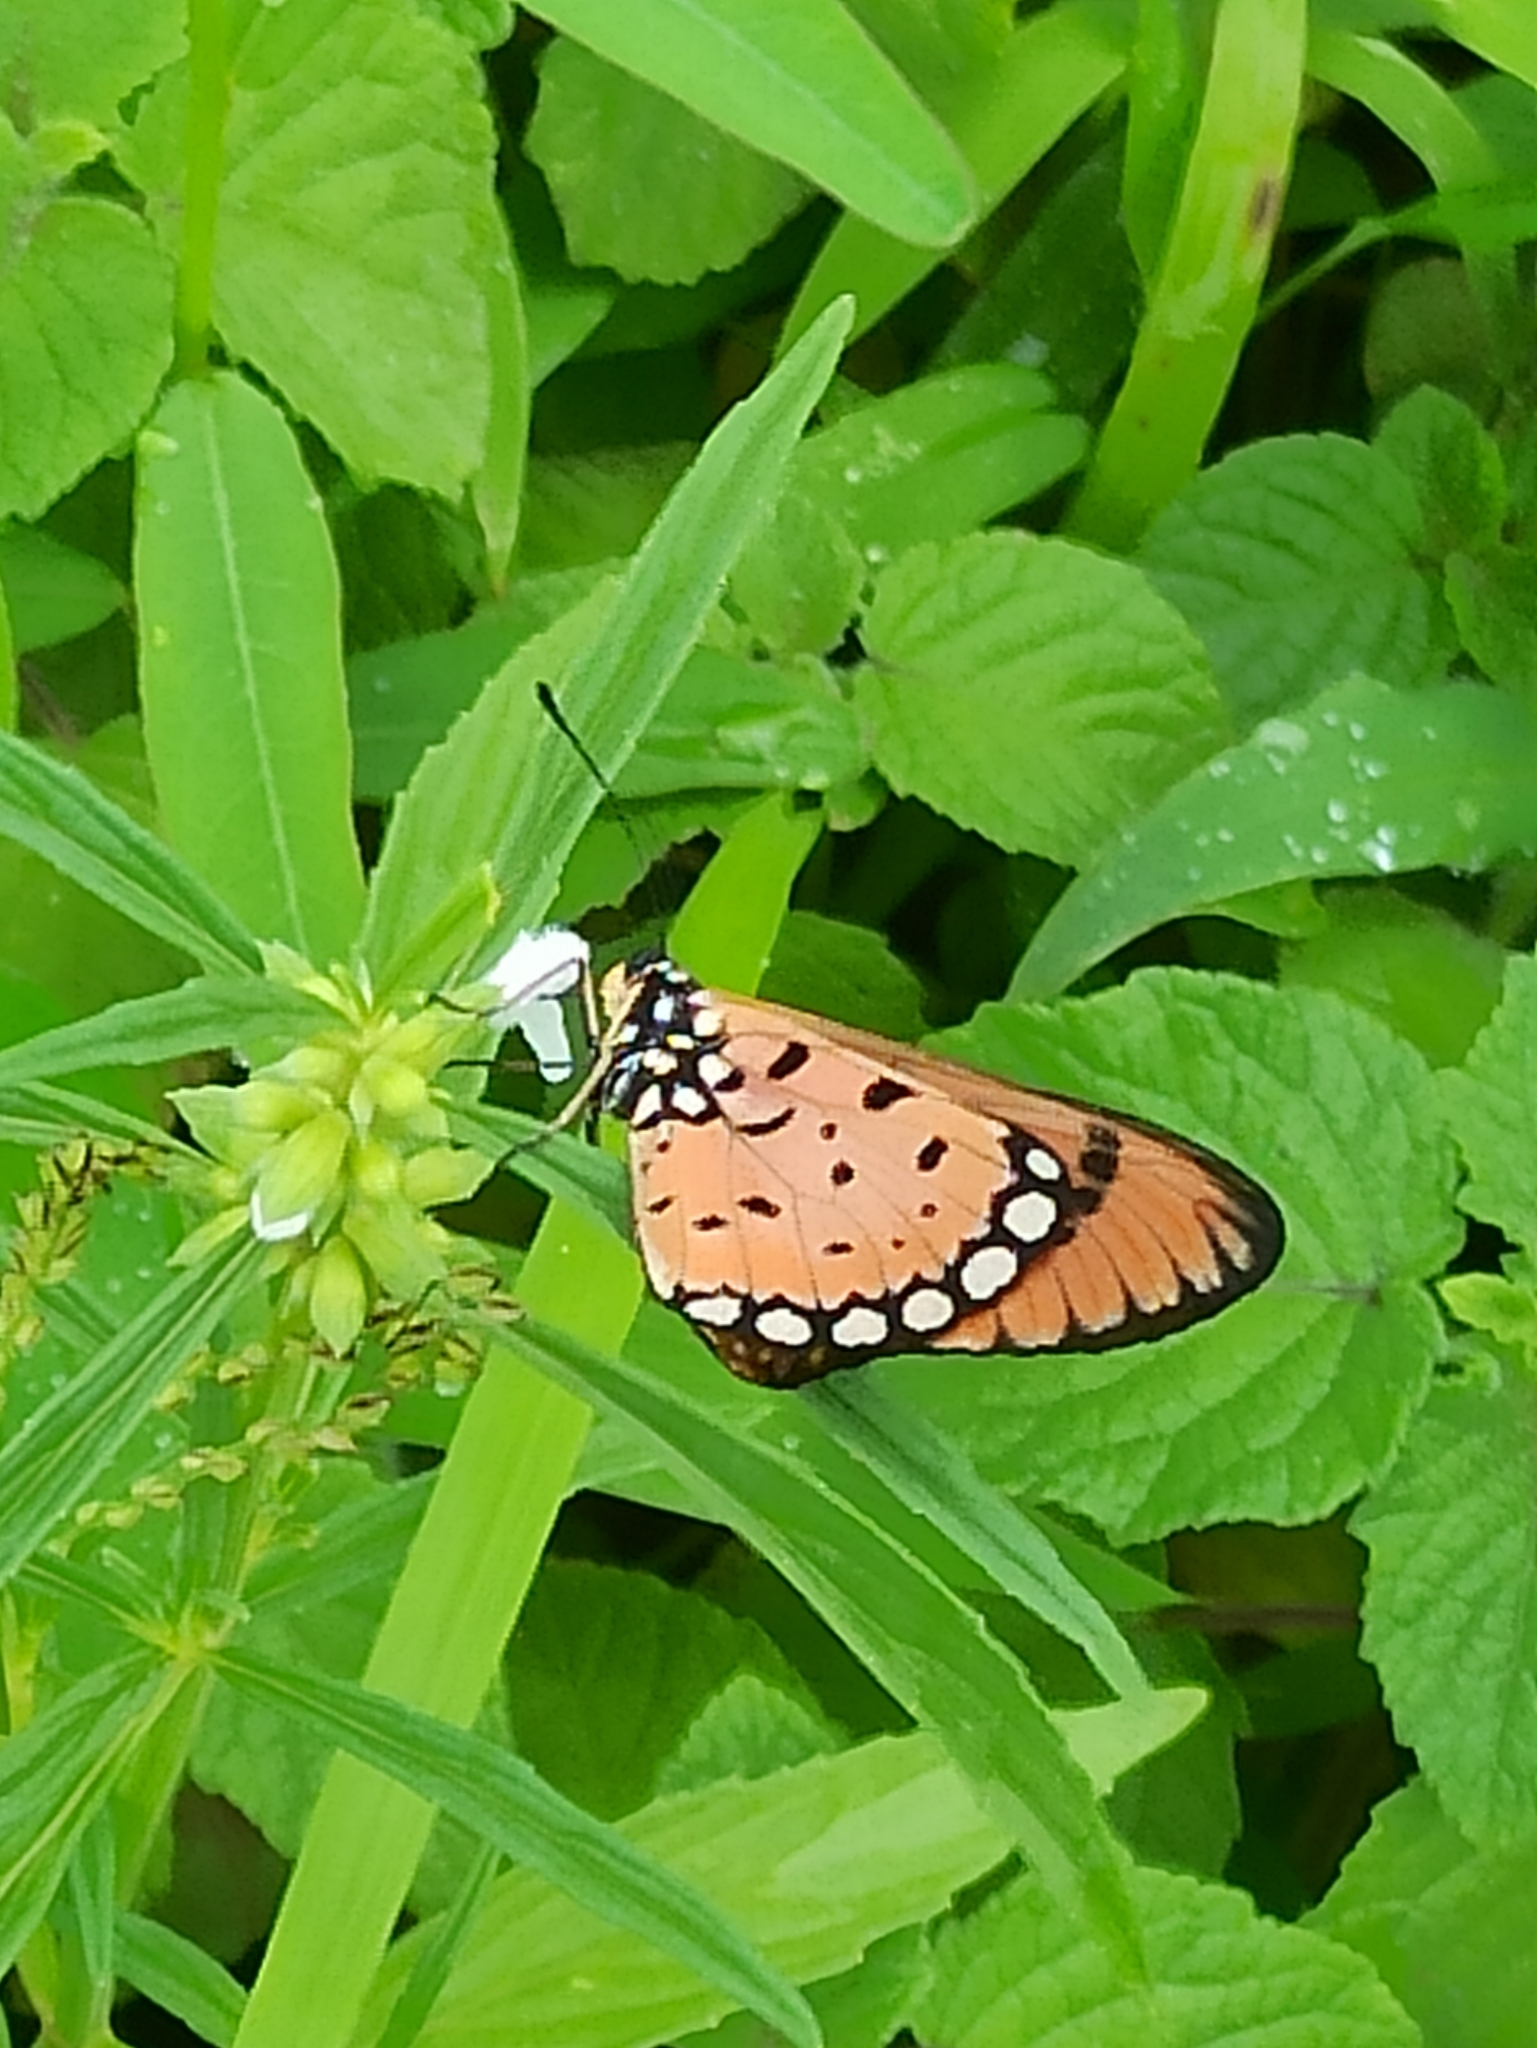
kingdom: Animalia
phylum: Arthropoda
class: Insecta
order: Lepidoptera
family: Nymphalidae
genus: Acraea
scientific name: Acraea terpsicore
